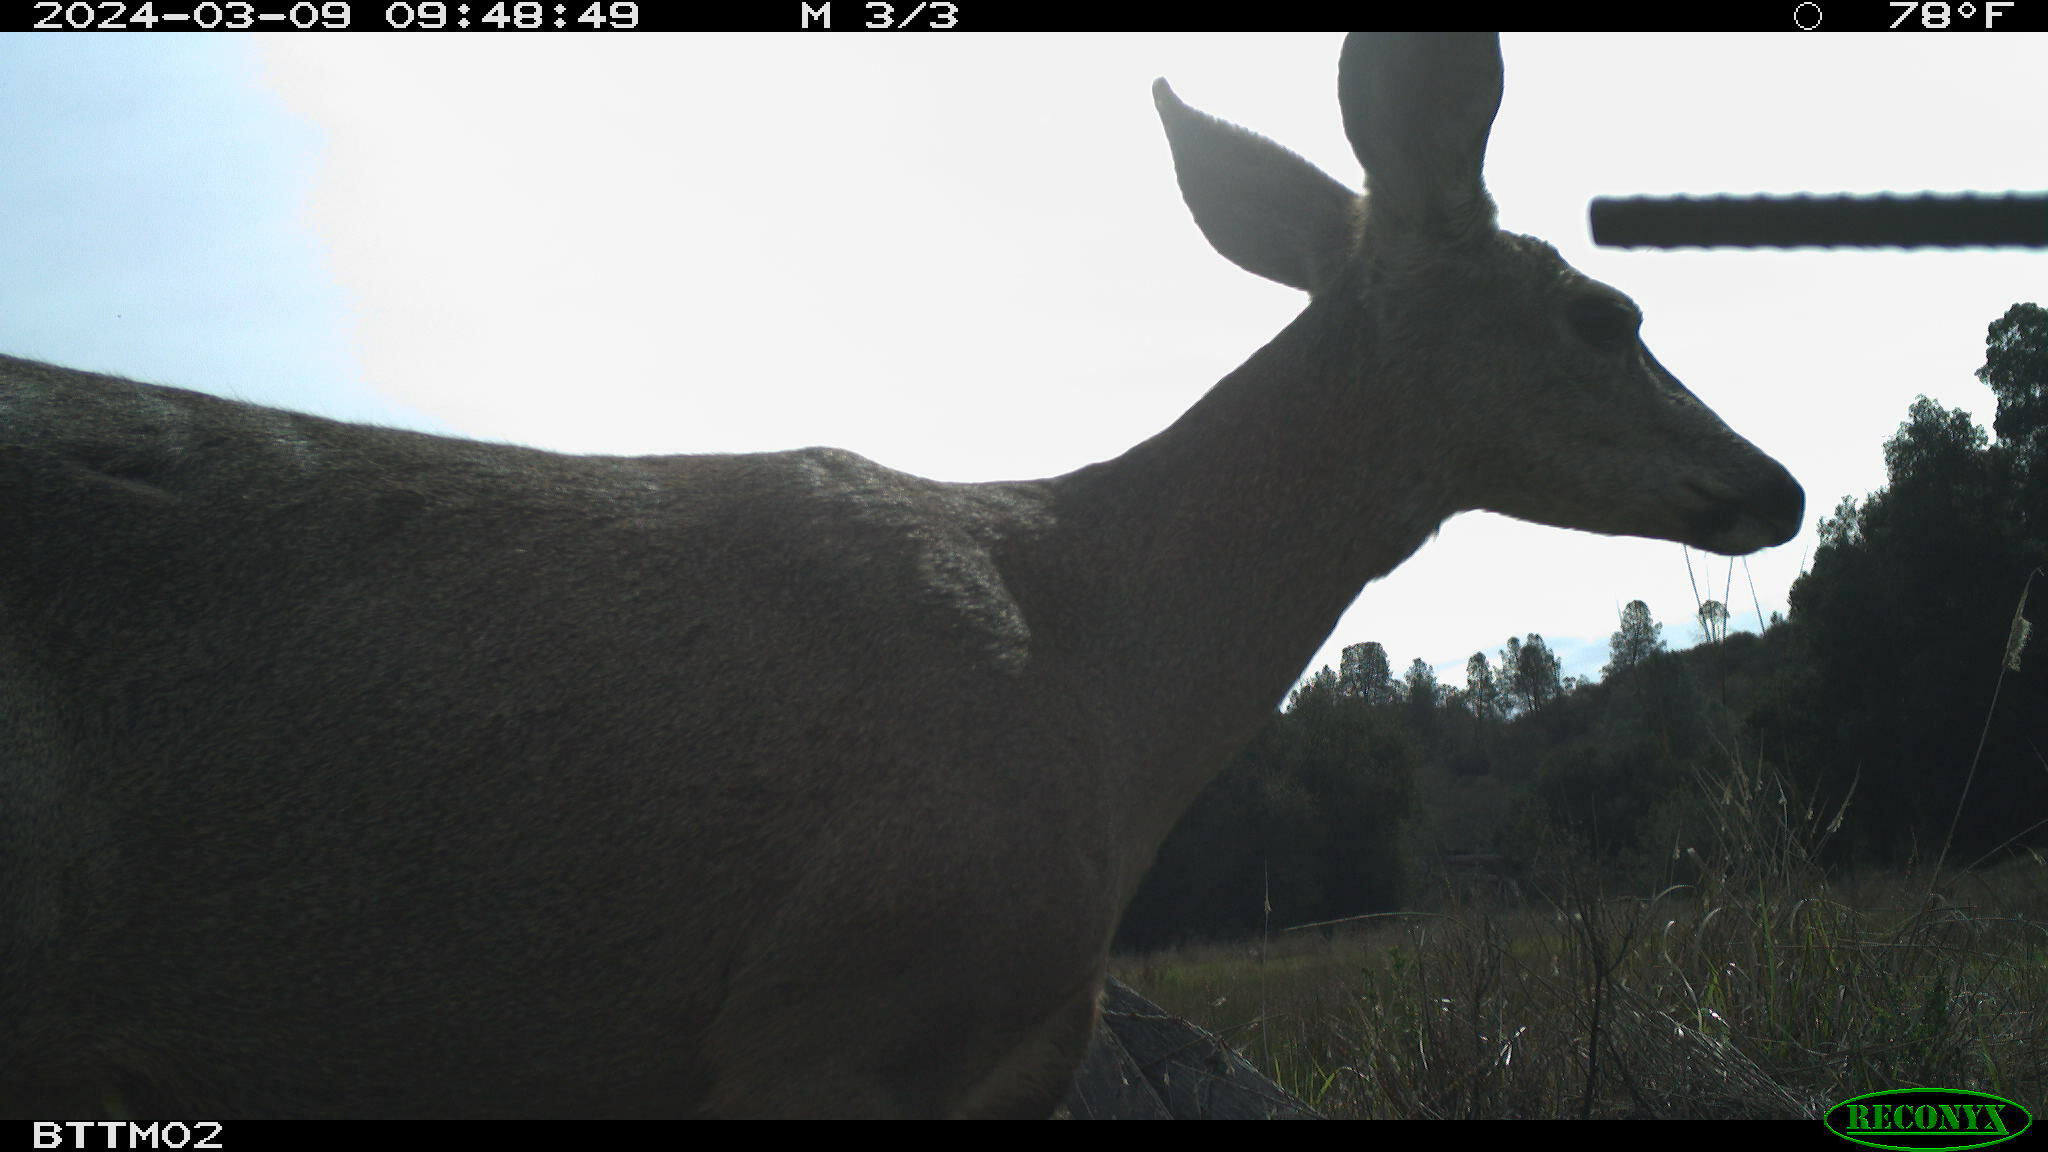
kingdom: Animalia
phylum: Chordata
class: Mammalia
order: Artiodactyla
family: Cervidae
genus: Odocoileus
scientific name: Odocoileus hemionus
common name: Mule deer
